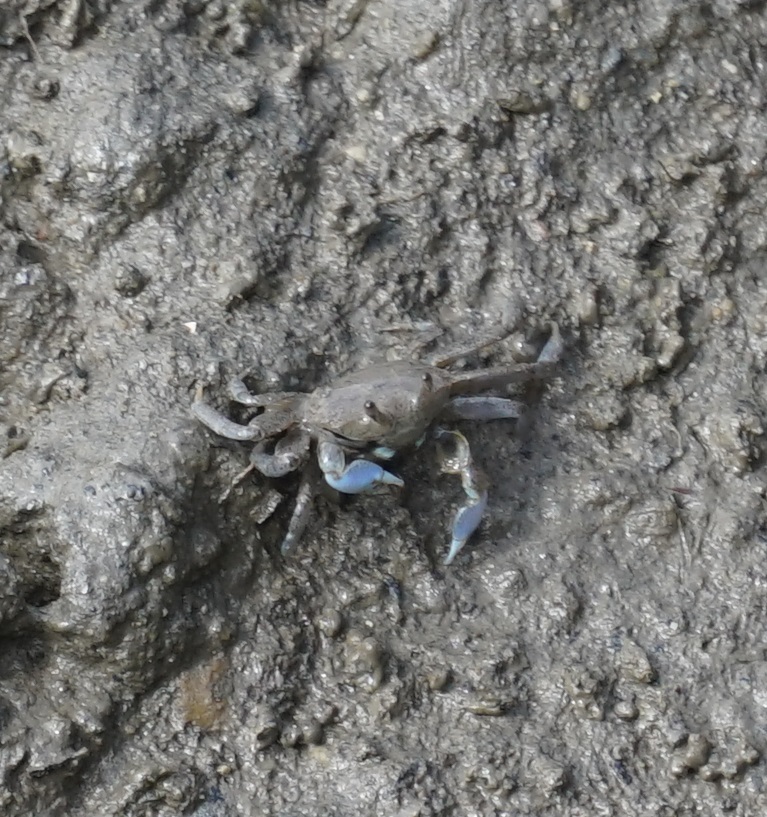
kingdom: Animalia
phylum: Arthropoda
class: Malacostraca
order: Decapoda
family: Macrophthalmidae
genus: Macrophthalmus
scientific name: Macrophthalmus pacificus
